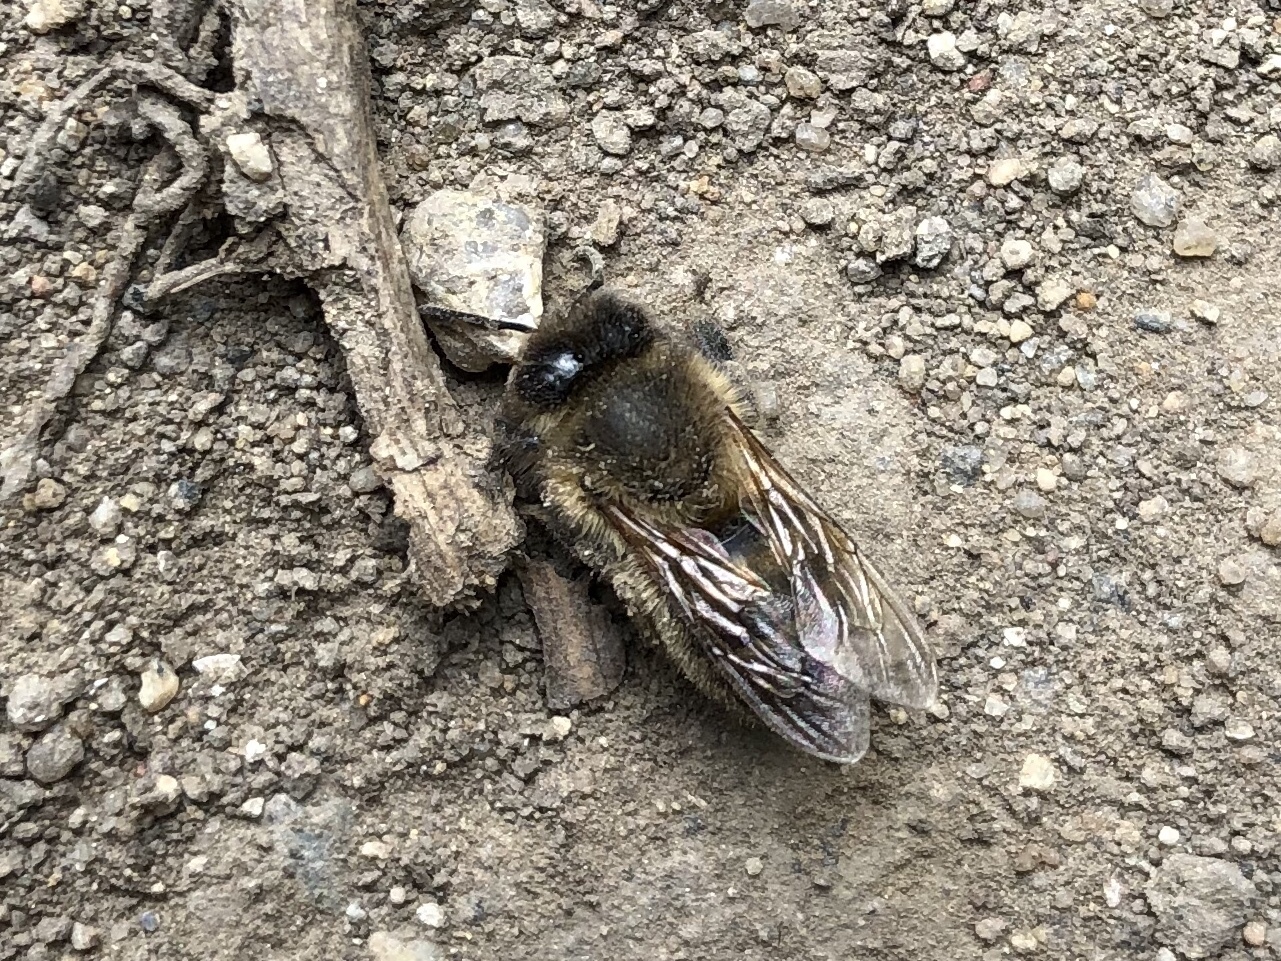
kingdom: Animalia
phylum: Arthropoda
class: Insecta
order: Hymenoptera
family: Apidae
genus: Apis
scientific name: Apis mellifera
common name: Honey bee
